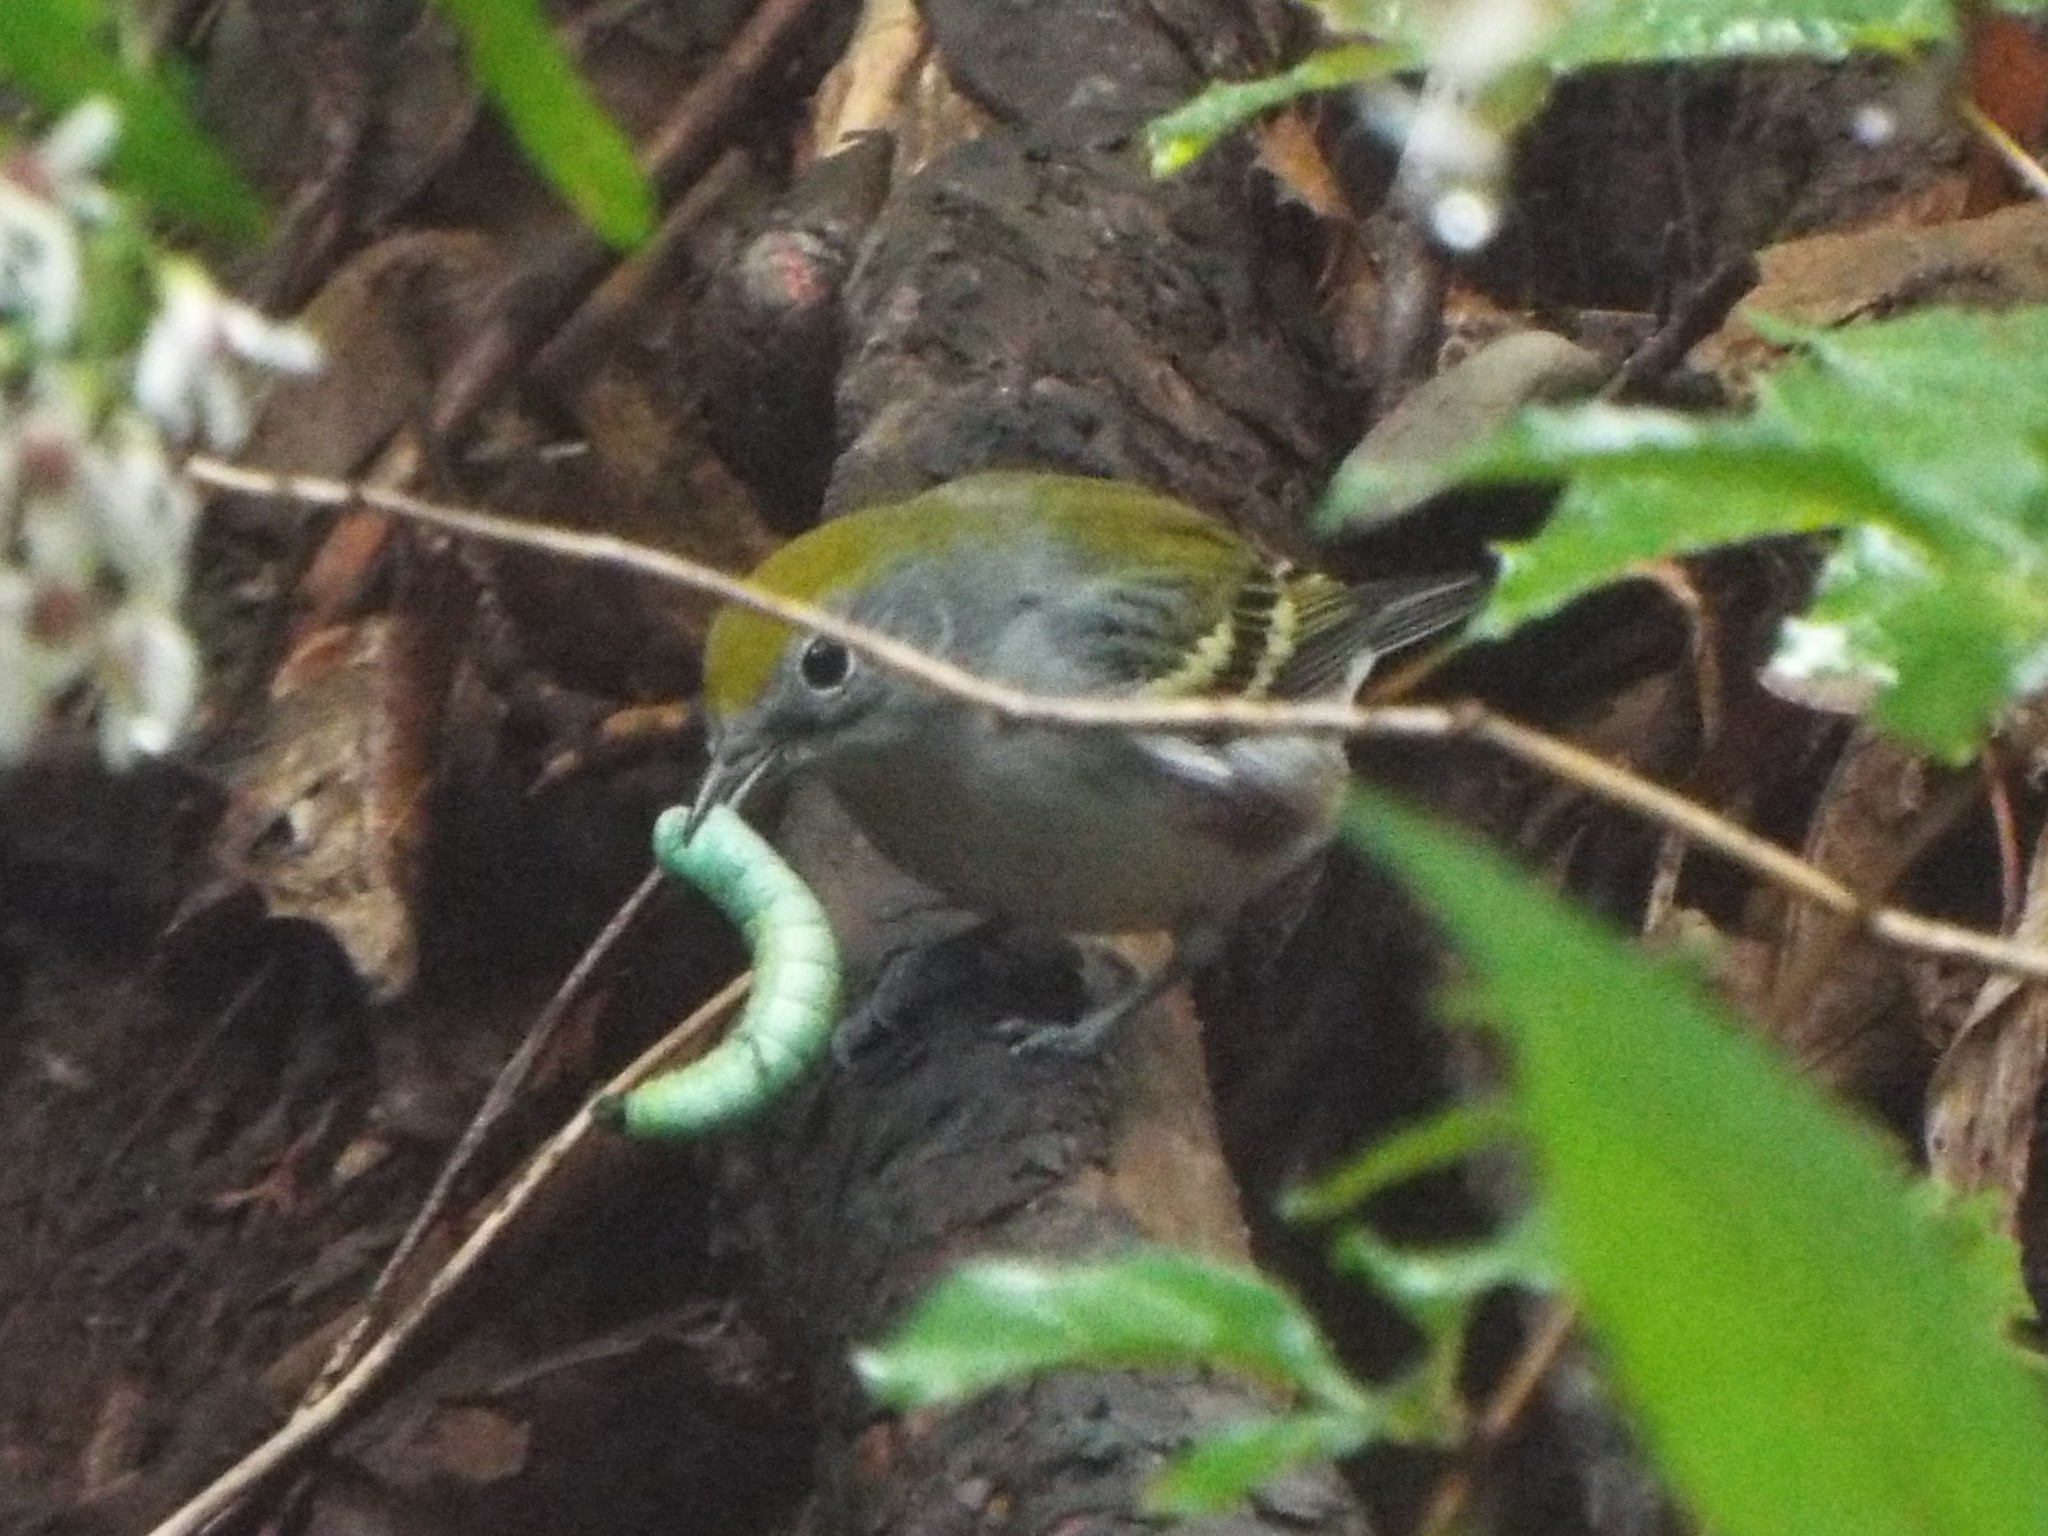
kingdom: Animalia
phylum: Chordata
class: Aves
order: Passeriformes
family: Parulidae
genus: Setophaga
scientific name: Setophaga pensylvanica
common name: Chestnut-sided warbler
